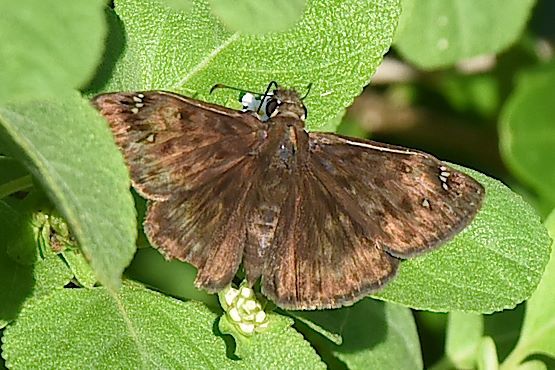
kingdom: Animalia
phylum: Arthropoda
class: Insecta
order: Lepidoptera
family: Hesperiidae
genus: Erynnis
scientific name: Erynnis horatius
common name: Horace's duskywing
